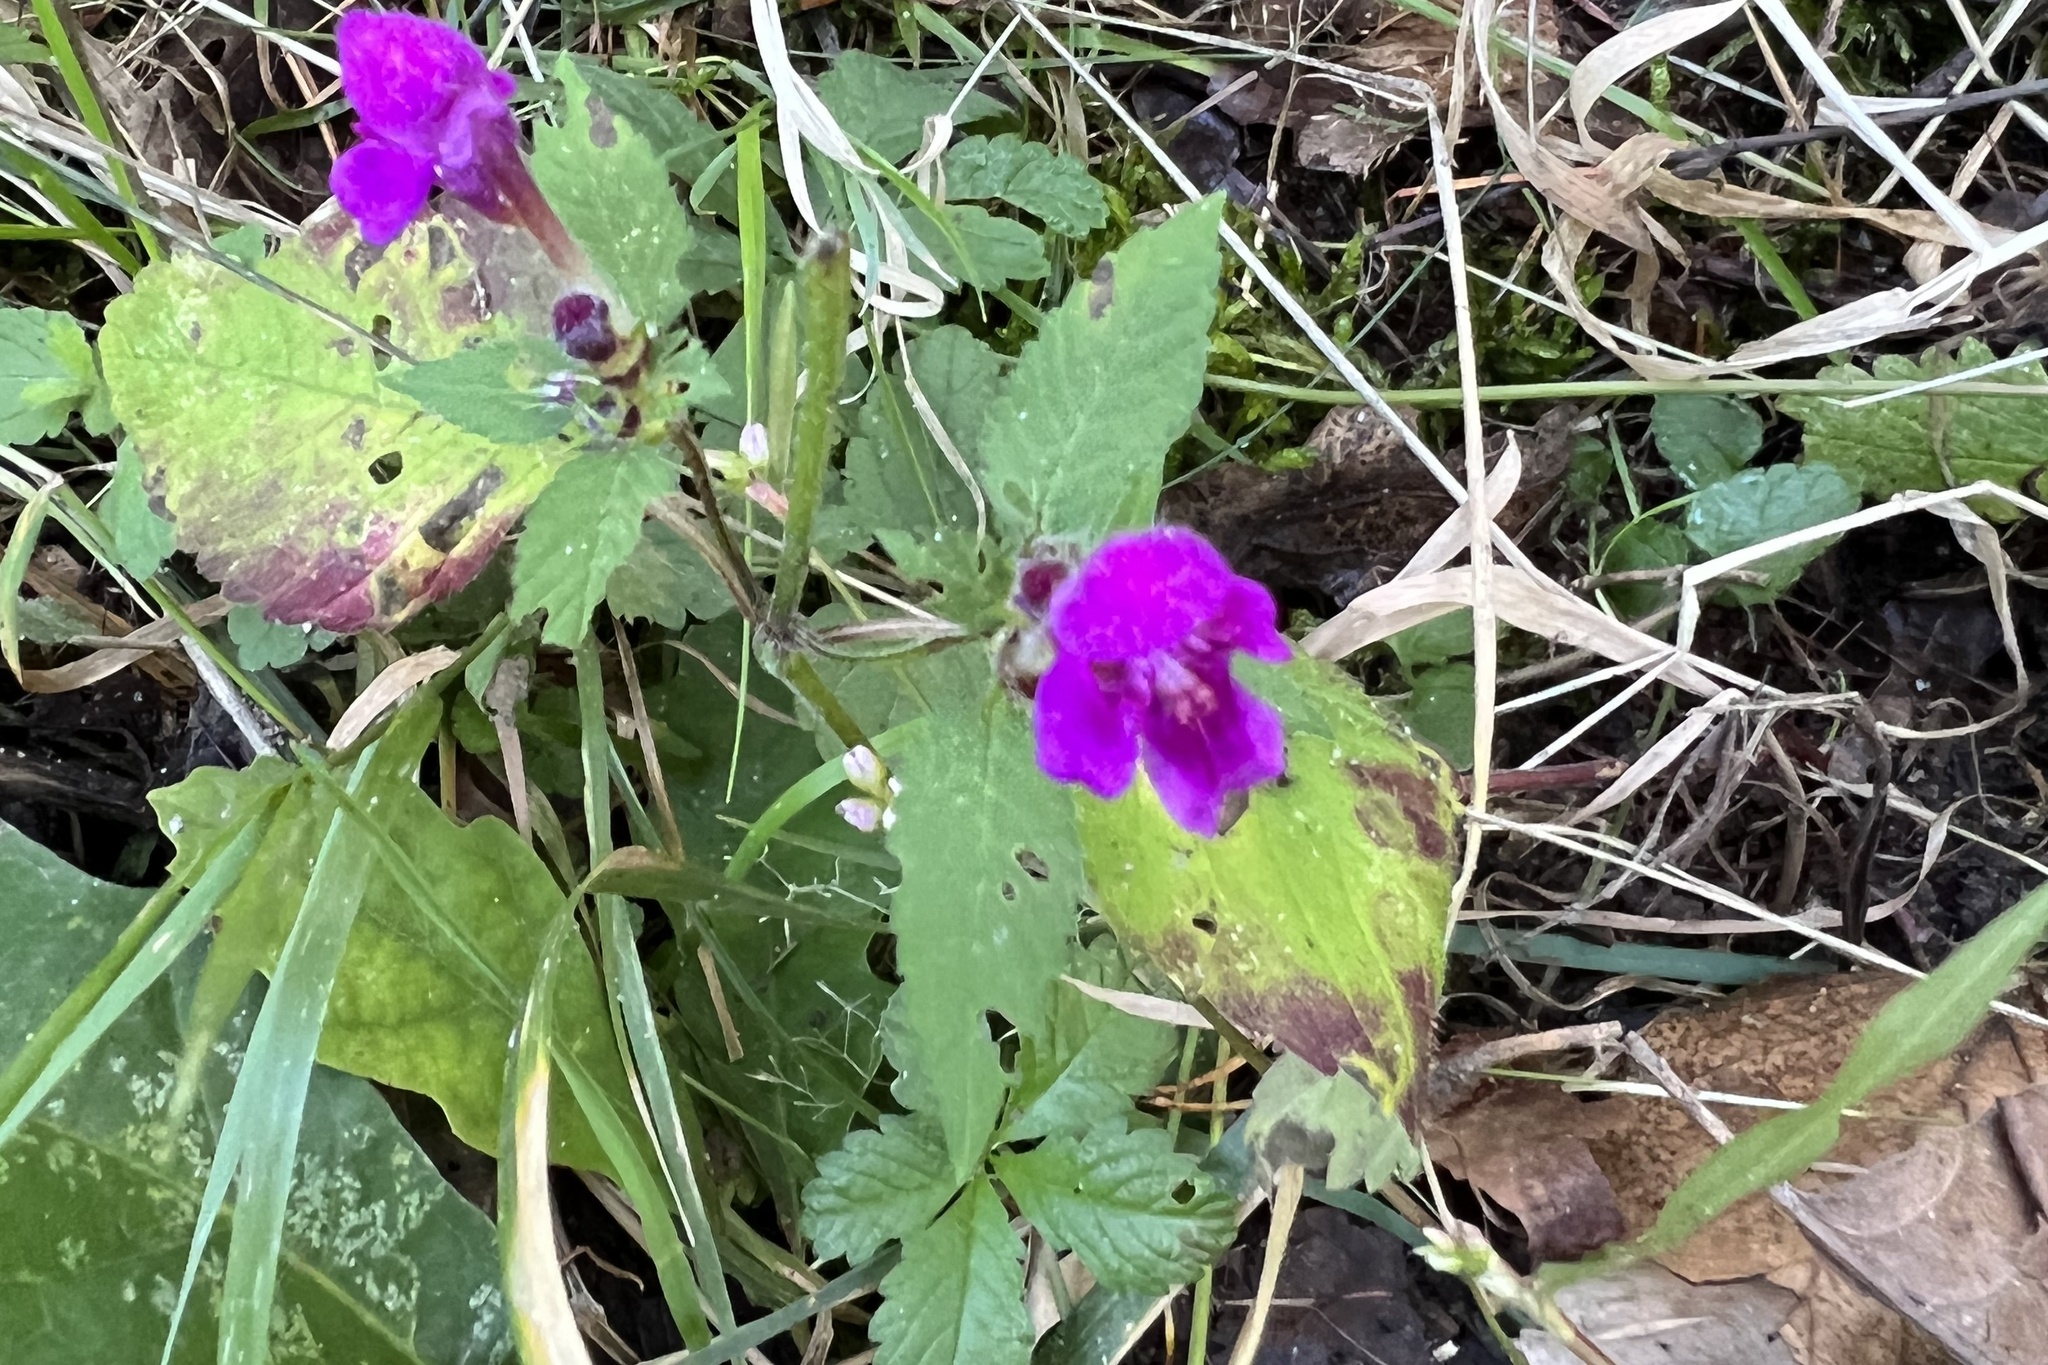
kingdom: Plantae
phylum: Tracheophyta
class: Magnoliopsida
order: Lamiales
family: Lamiaceae
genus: Galeopsis
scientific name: Galeopsis pubescens
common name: Downy hemp-nettle
